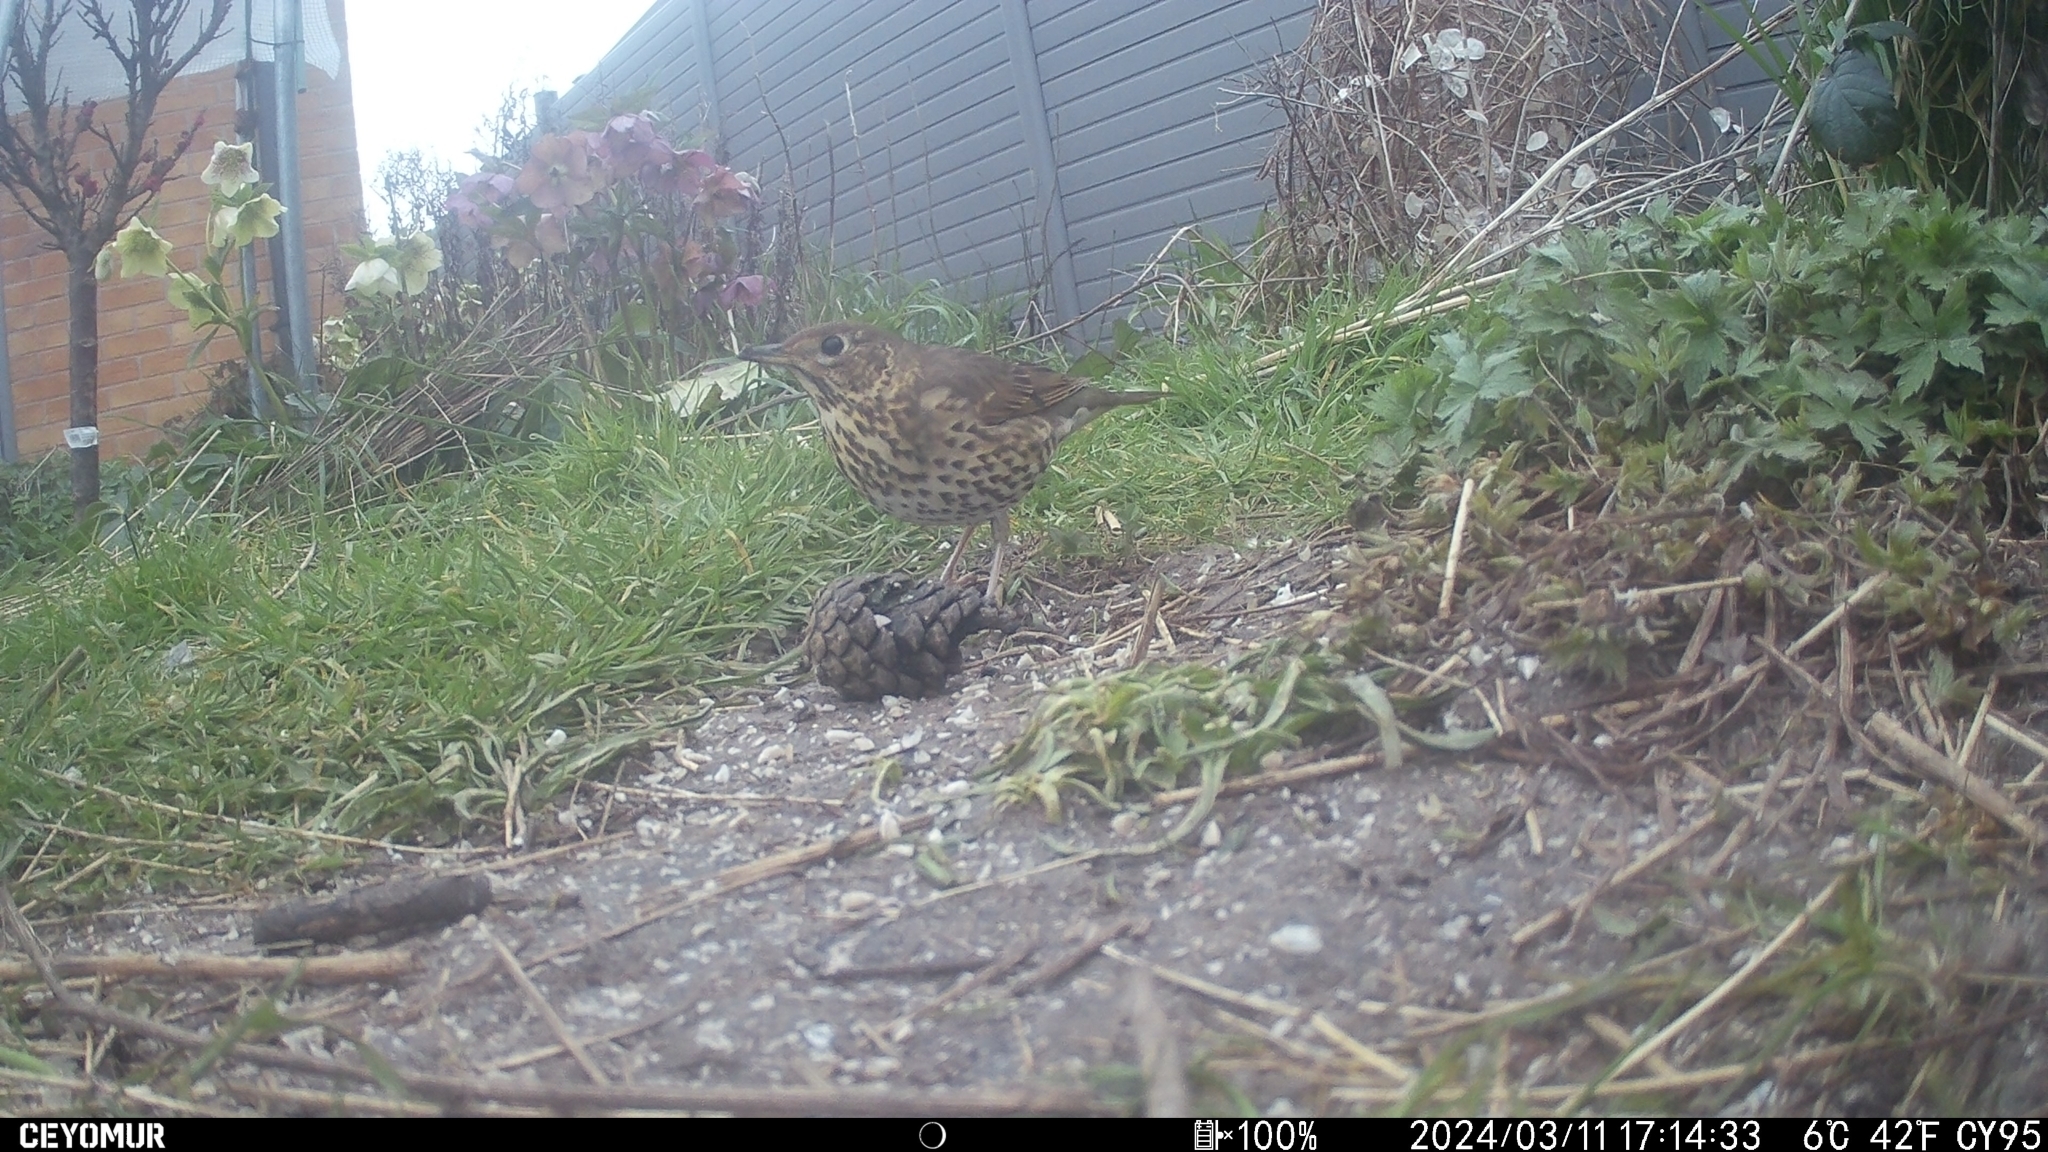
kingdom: Animalia
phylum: Chordata
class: Aves
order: Passeriformes
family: Turdidae
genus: Turdus
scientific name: Turdus philomelos
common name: Song thrush
